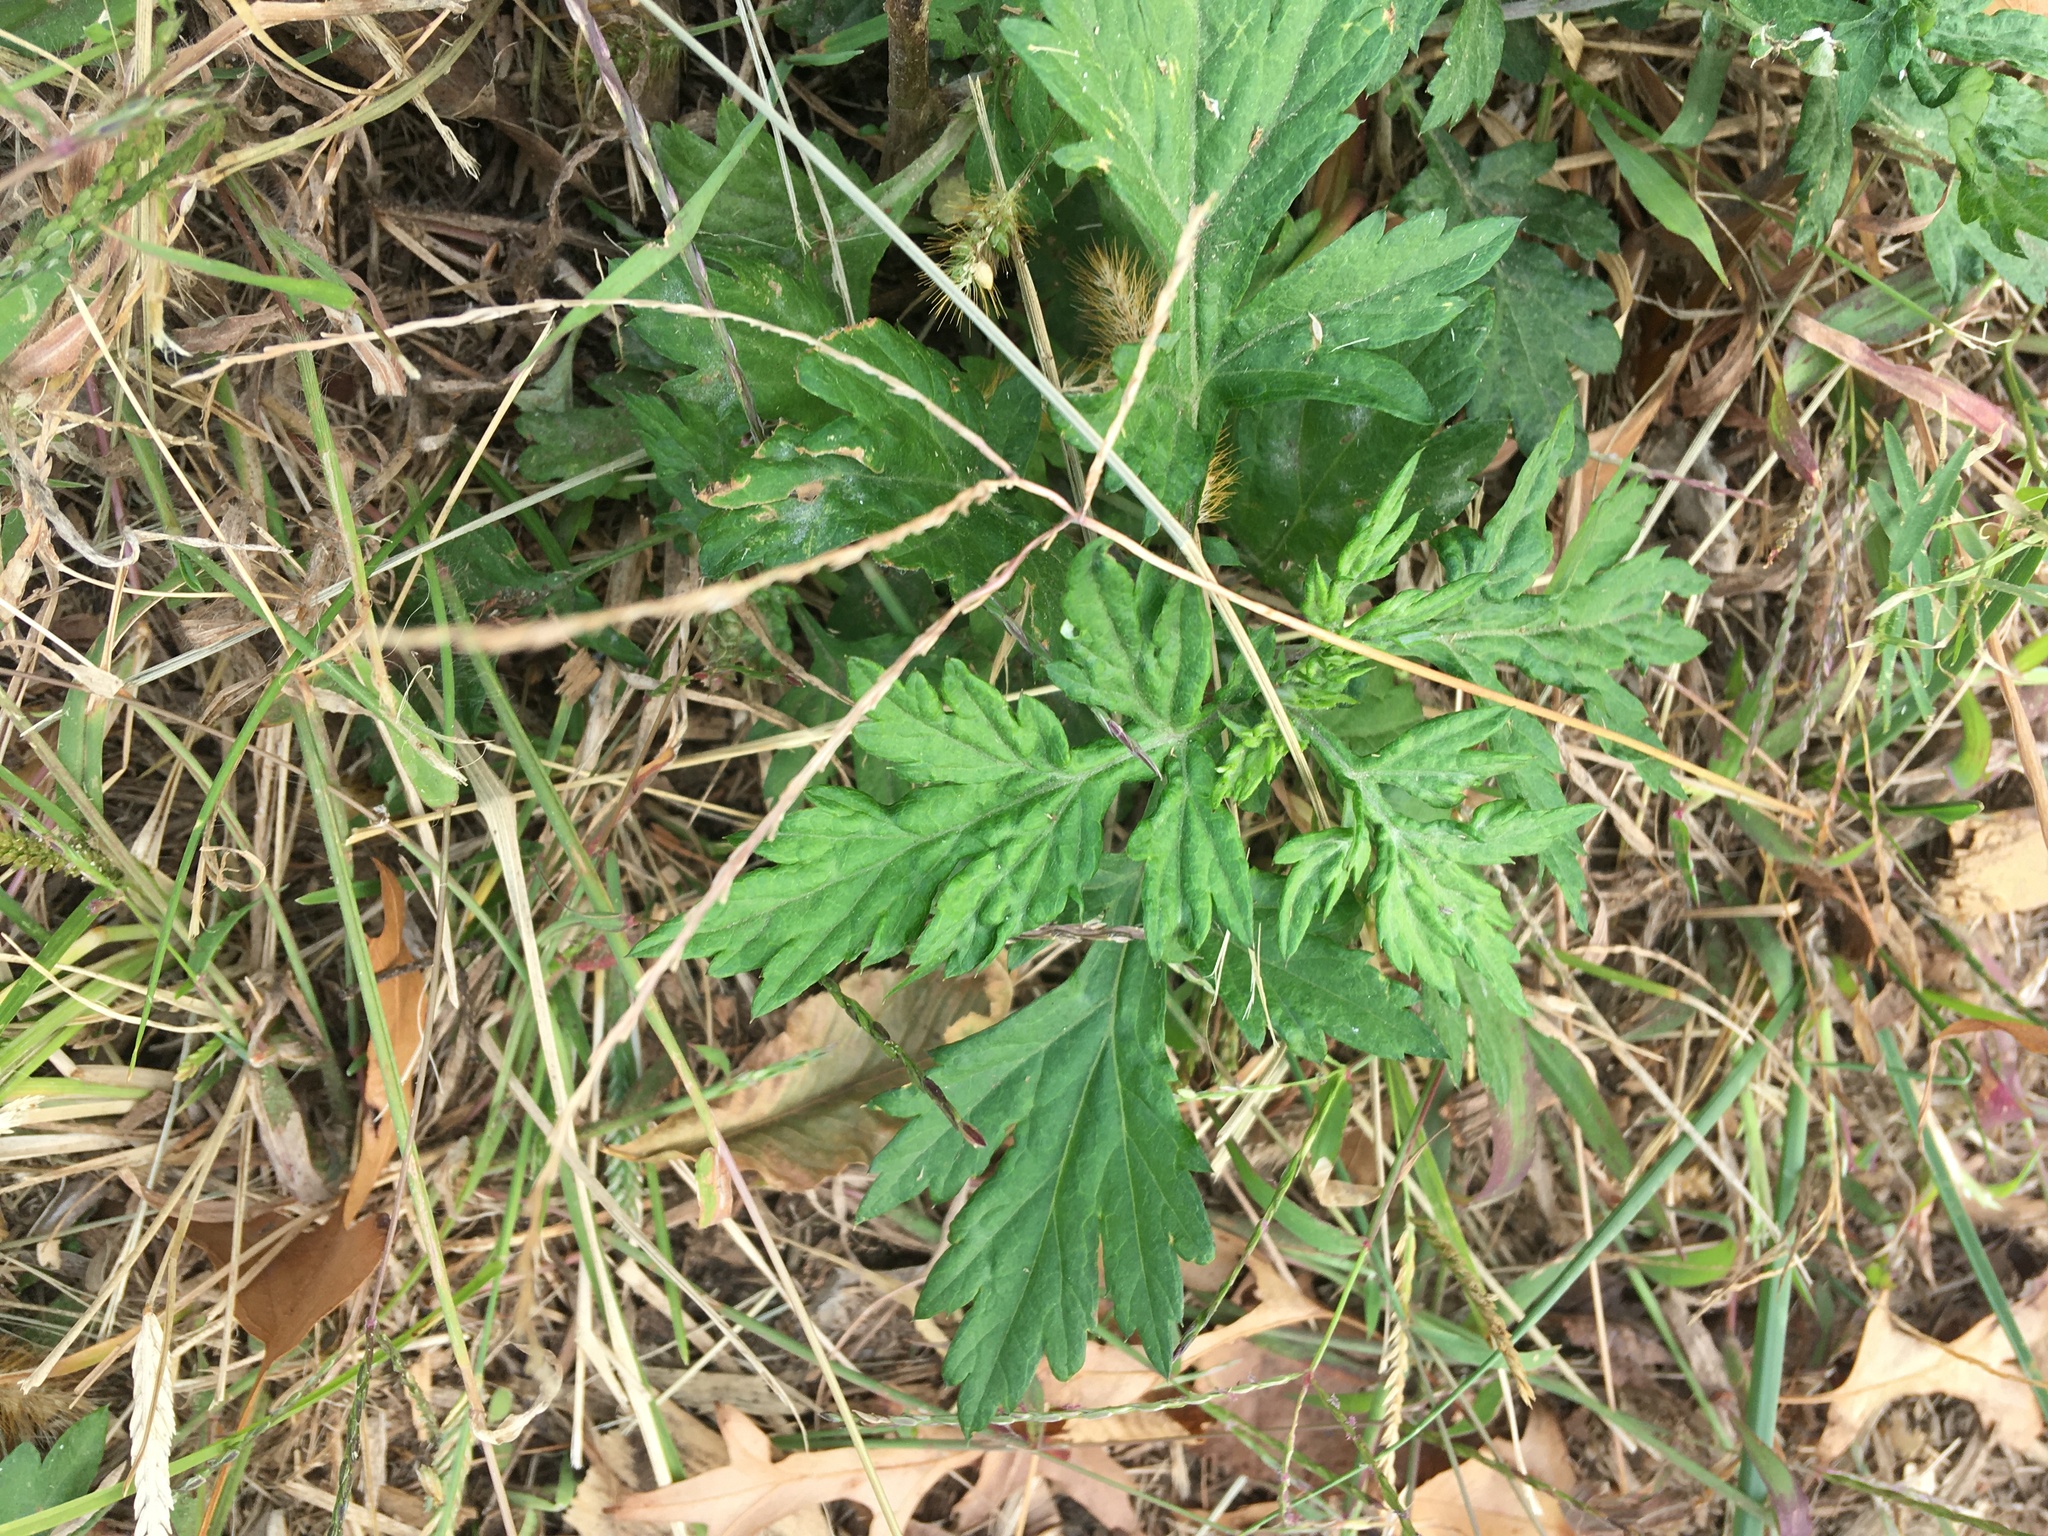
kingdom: Plantae
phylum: Tracheophyta
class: Magnoliopsida
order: Asterales
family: Asteraceae
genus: Artemisia
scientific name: Artemisia vulgaris
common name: Mugwort
